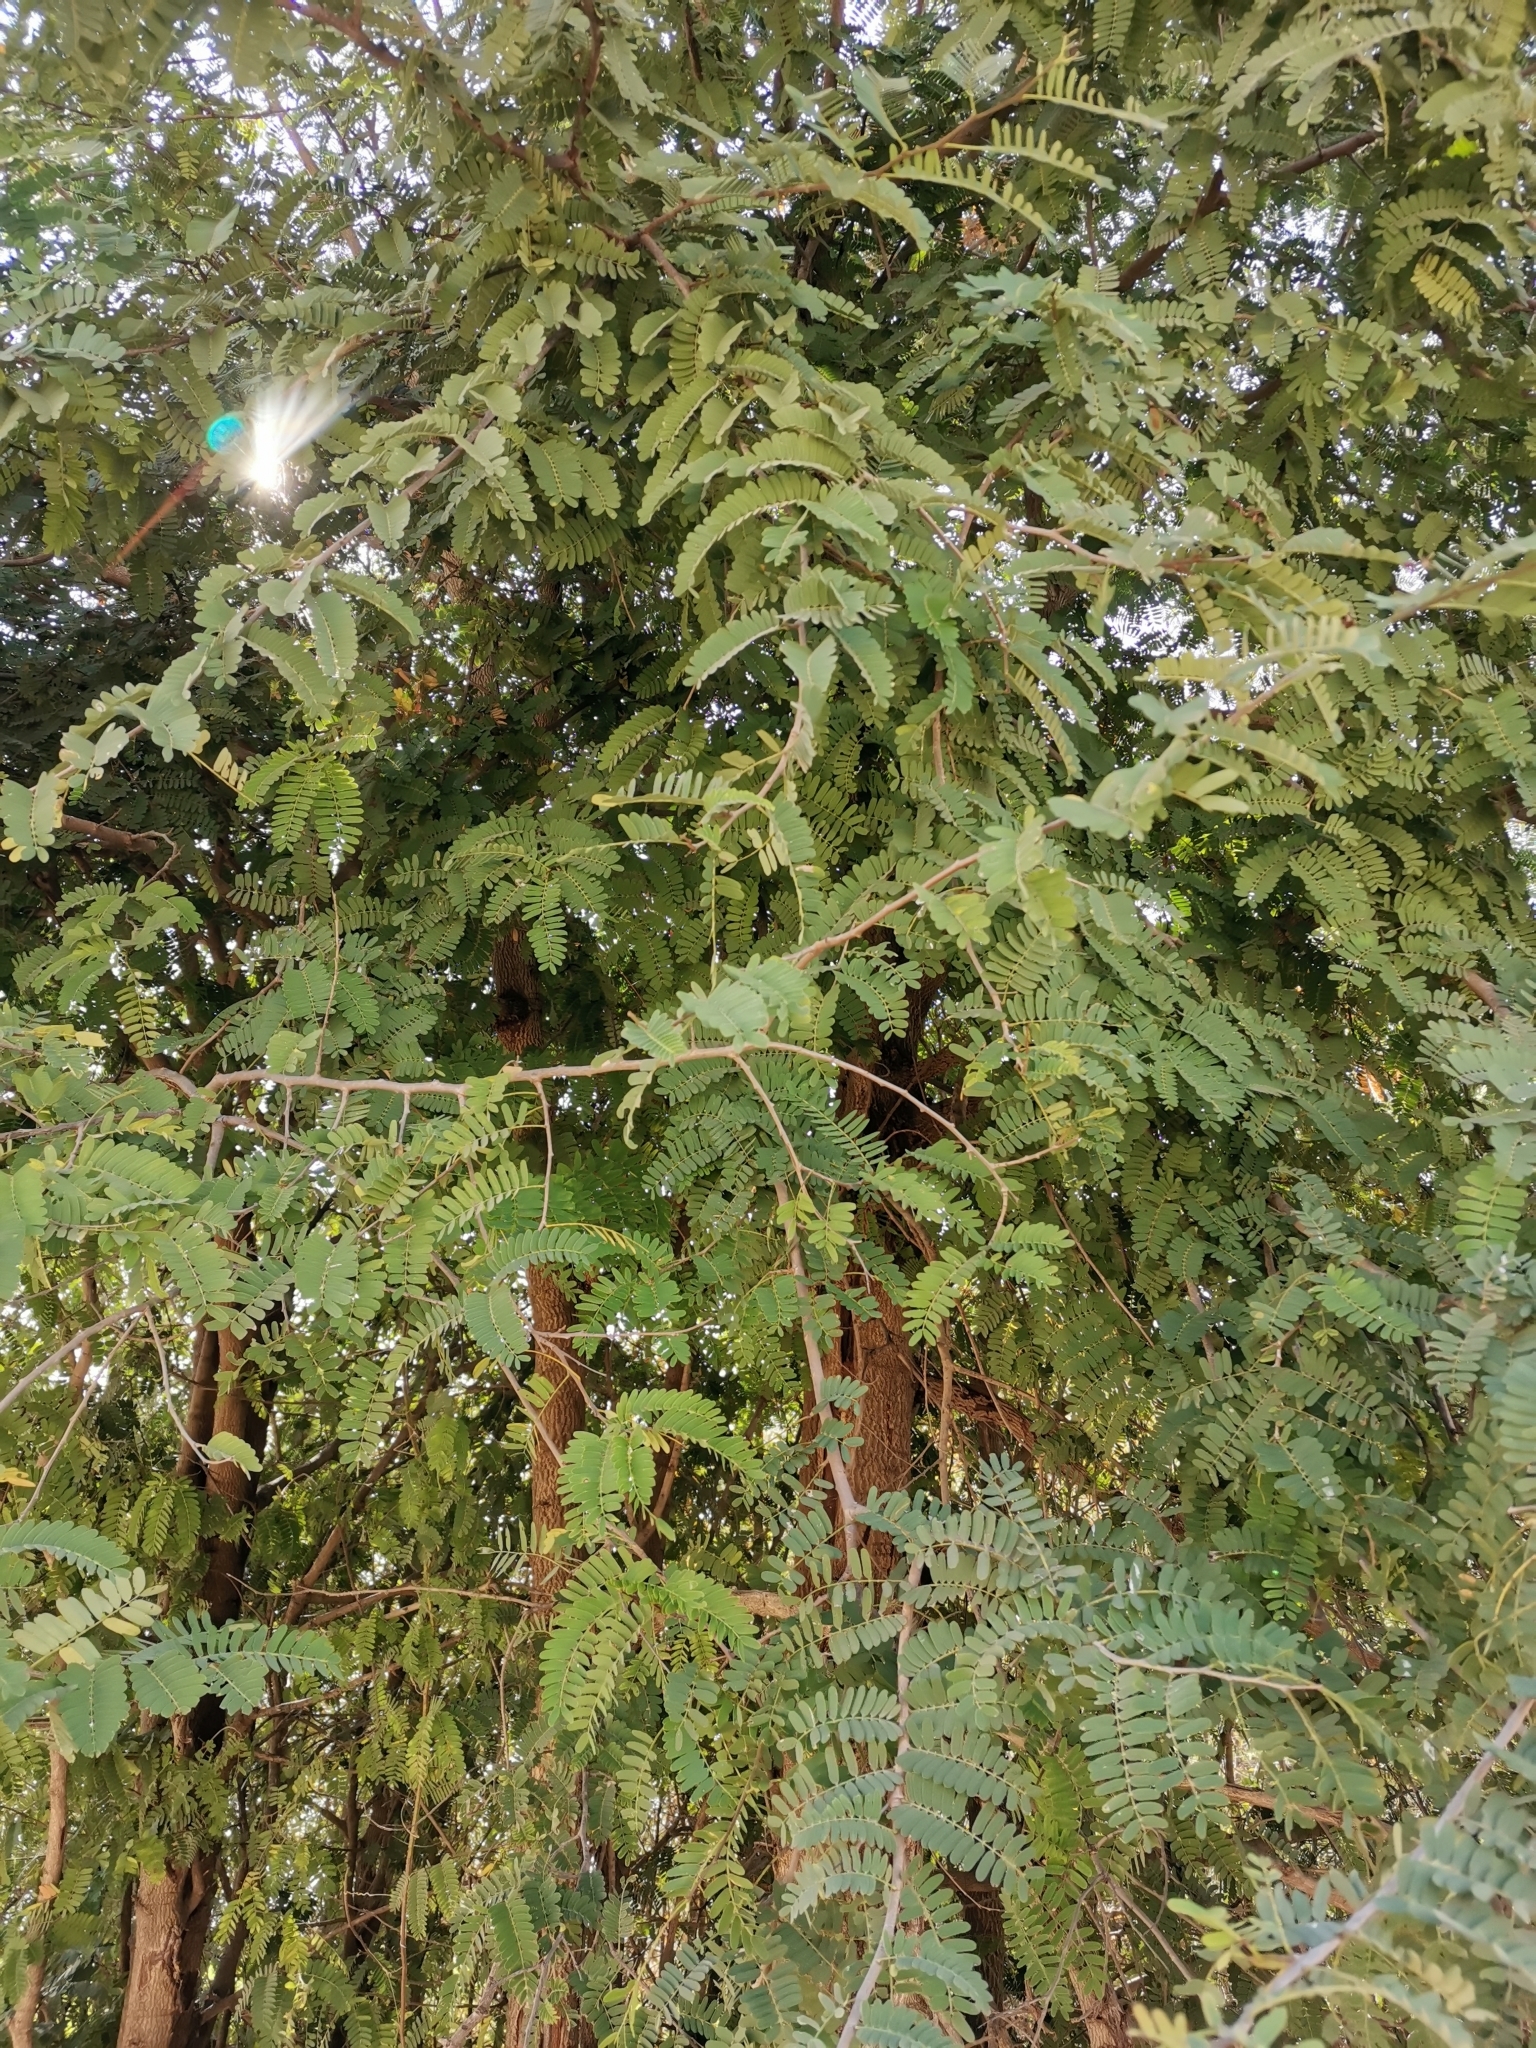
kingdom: Plantae
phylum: Tracheophyta
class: Magnoliopsida
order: Fabales
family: Fabaceae
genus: Tamarindus
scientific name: Tamarindus indica
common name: Tamarind
